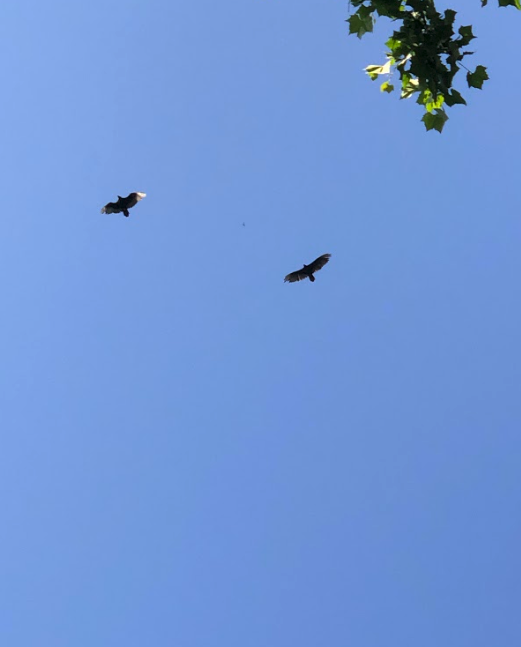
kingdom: Animalia
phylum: Chordata
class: Aves
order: Accipitriformes
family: Cathartidae
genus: Cathartes
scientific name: Cathartes aura
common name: Turkey vulture
